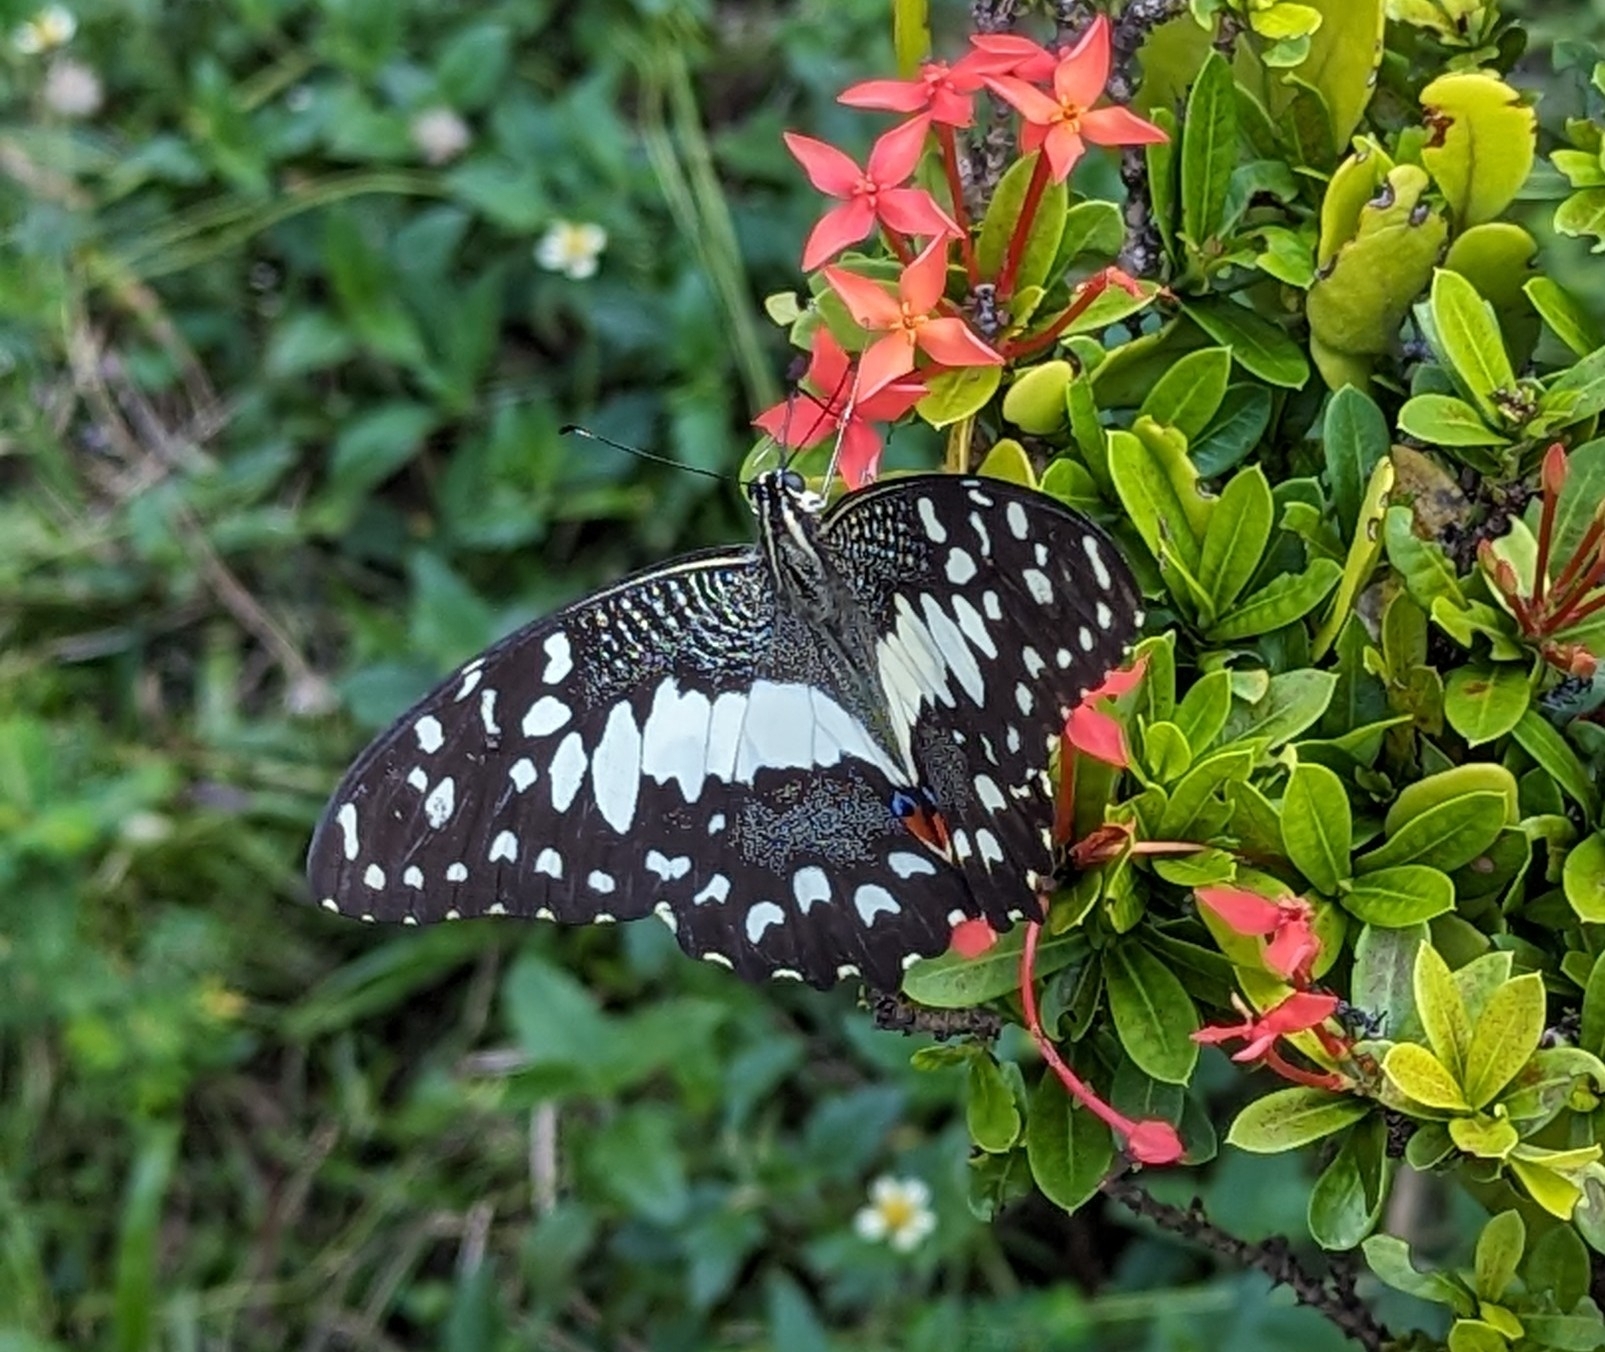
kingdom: Animalia
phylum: Arthropoda
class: Insecta
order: Lepidoptera
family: Papilionidae
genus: Papilio
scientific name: Papilio demoleus
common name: Lime butterfly
